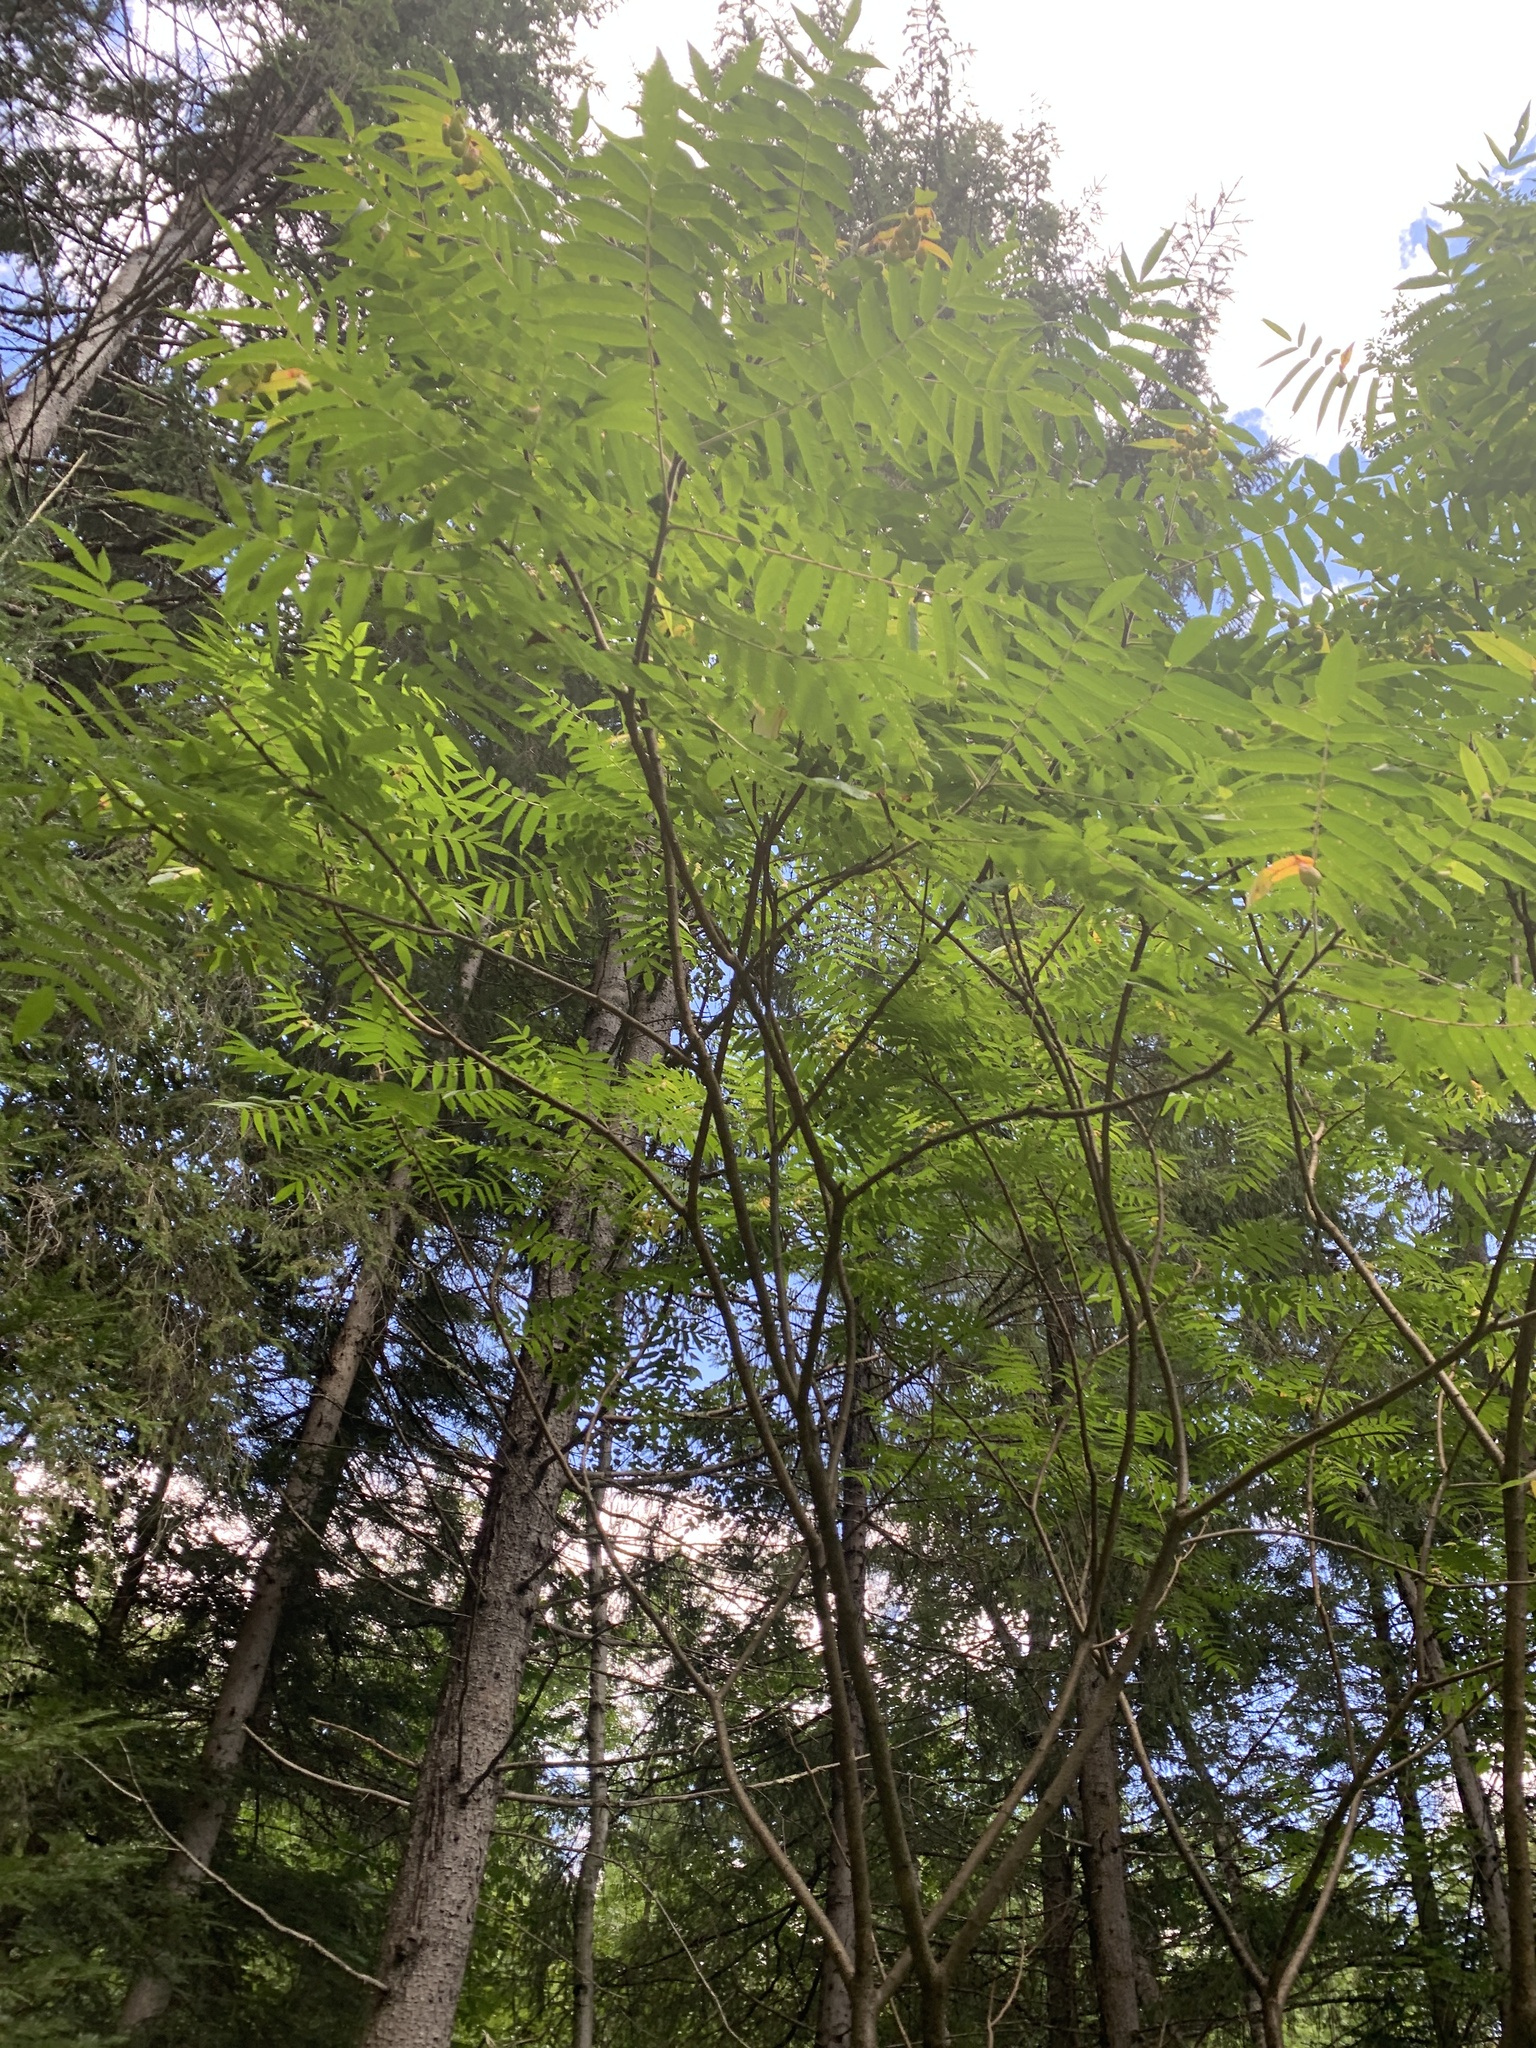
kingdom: Plantae
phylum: Tracheophyta
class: Magnoliopsida
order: Sapindales
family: Anacardiaceae
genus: Rhus
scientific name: Rhus typhina
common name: Staghorn sumac
